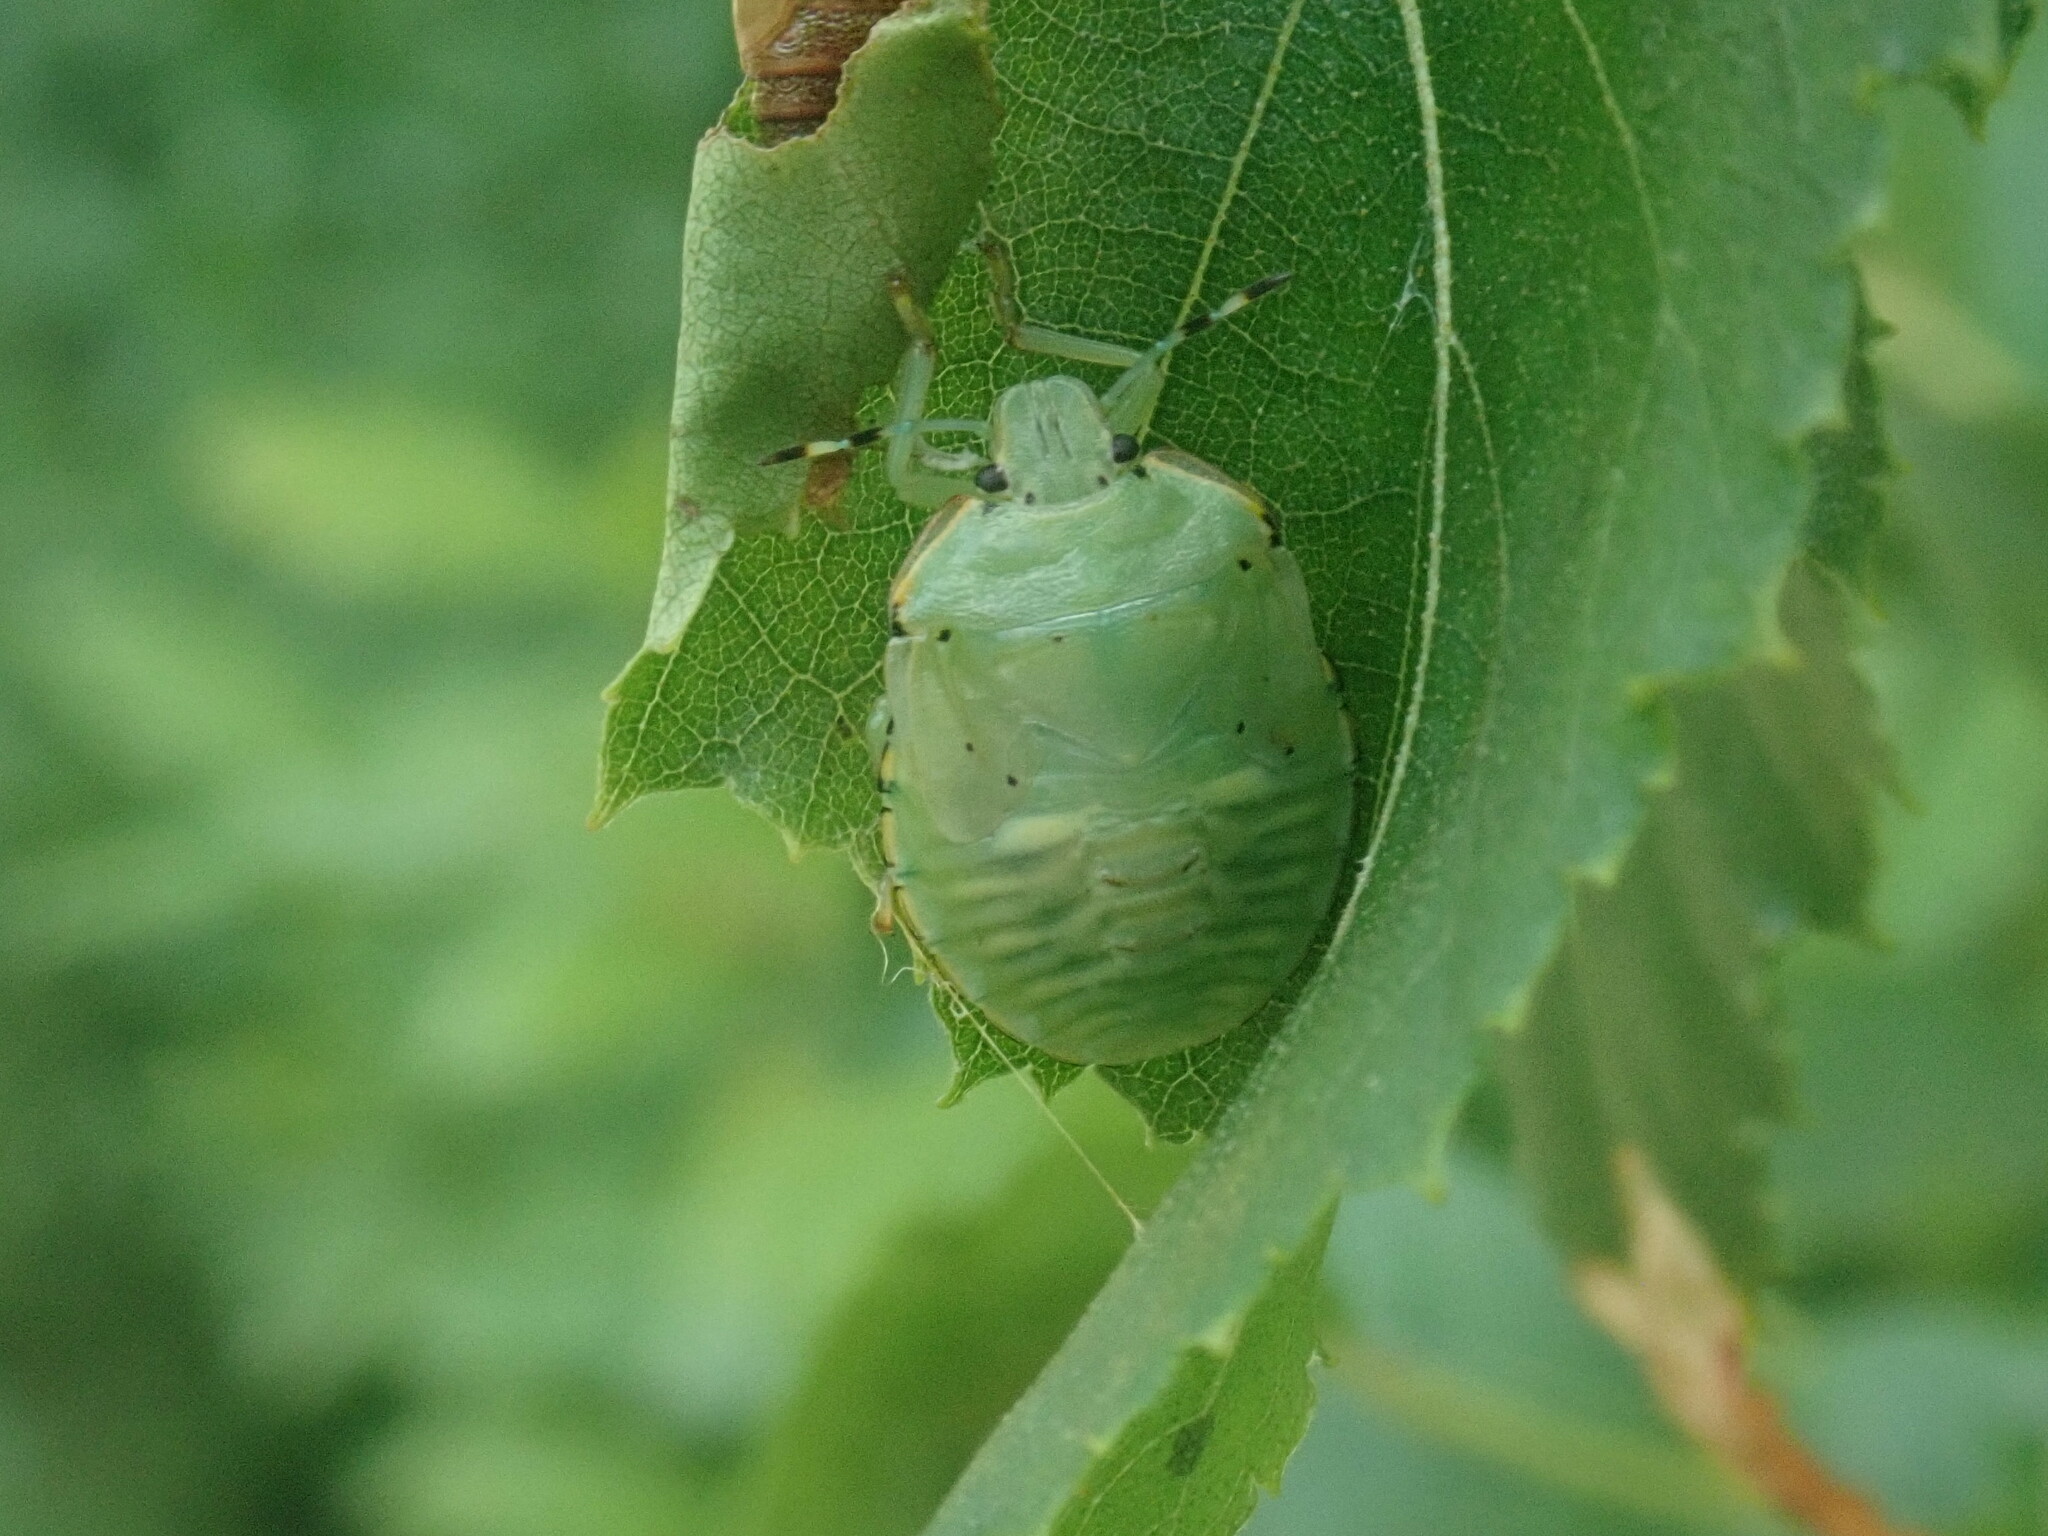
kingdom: Animalia
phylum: Arthropoda
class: Insecta
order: Hemiptera
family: Pentatomidae
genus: Chinavia
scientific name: Chinavia hilaris
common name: Green stink bug
